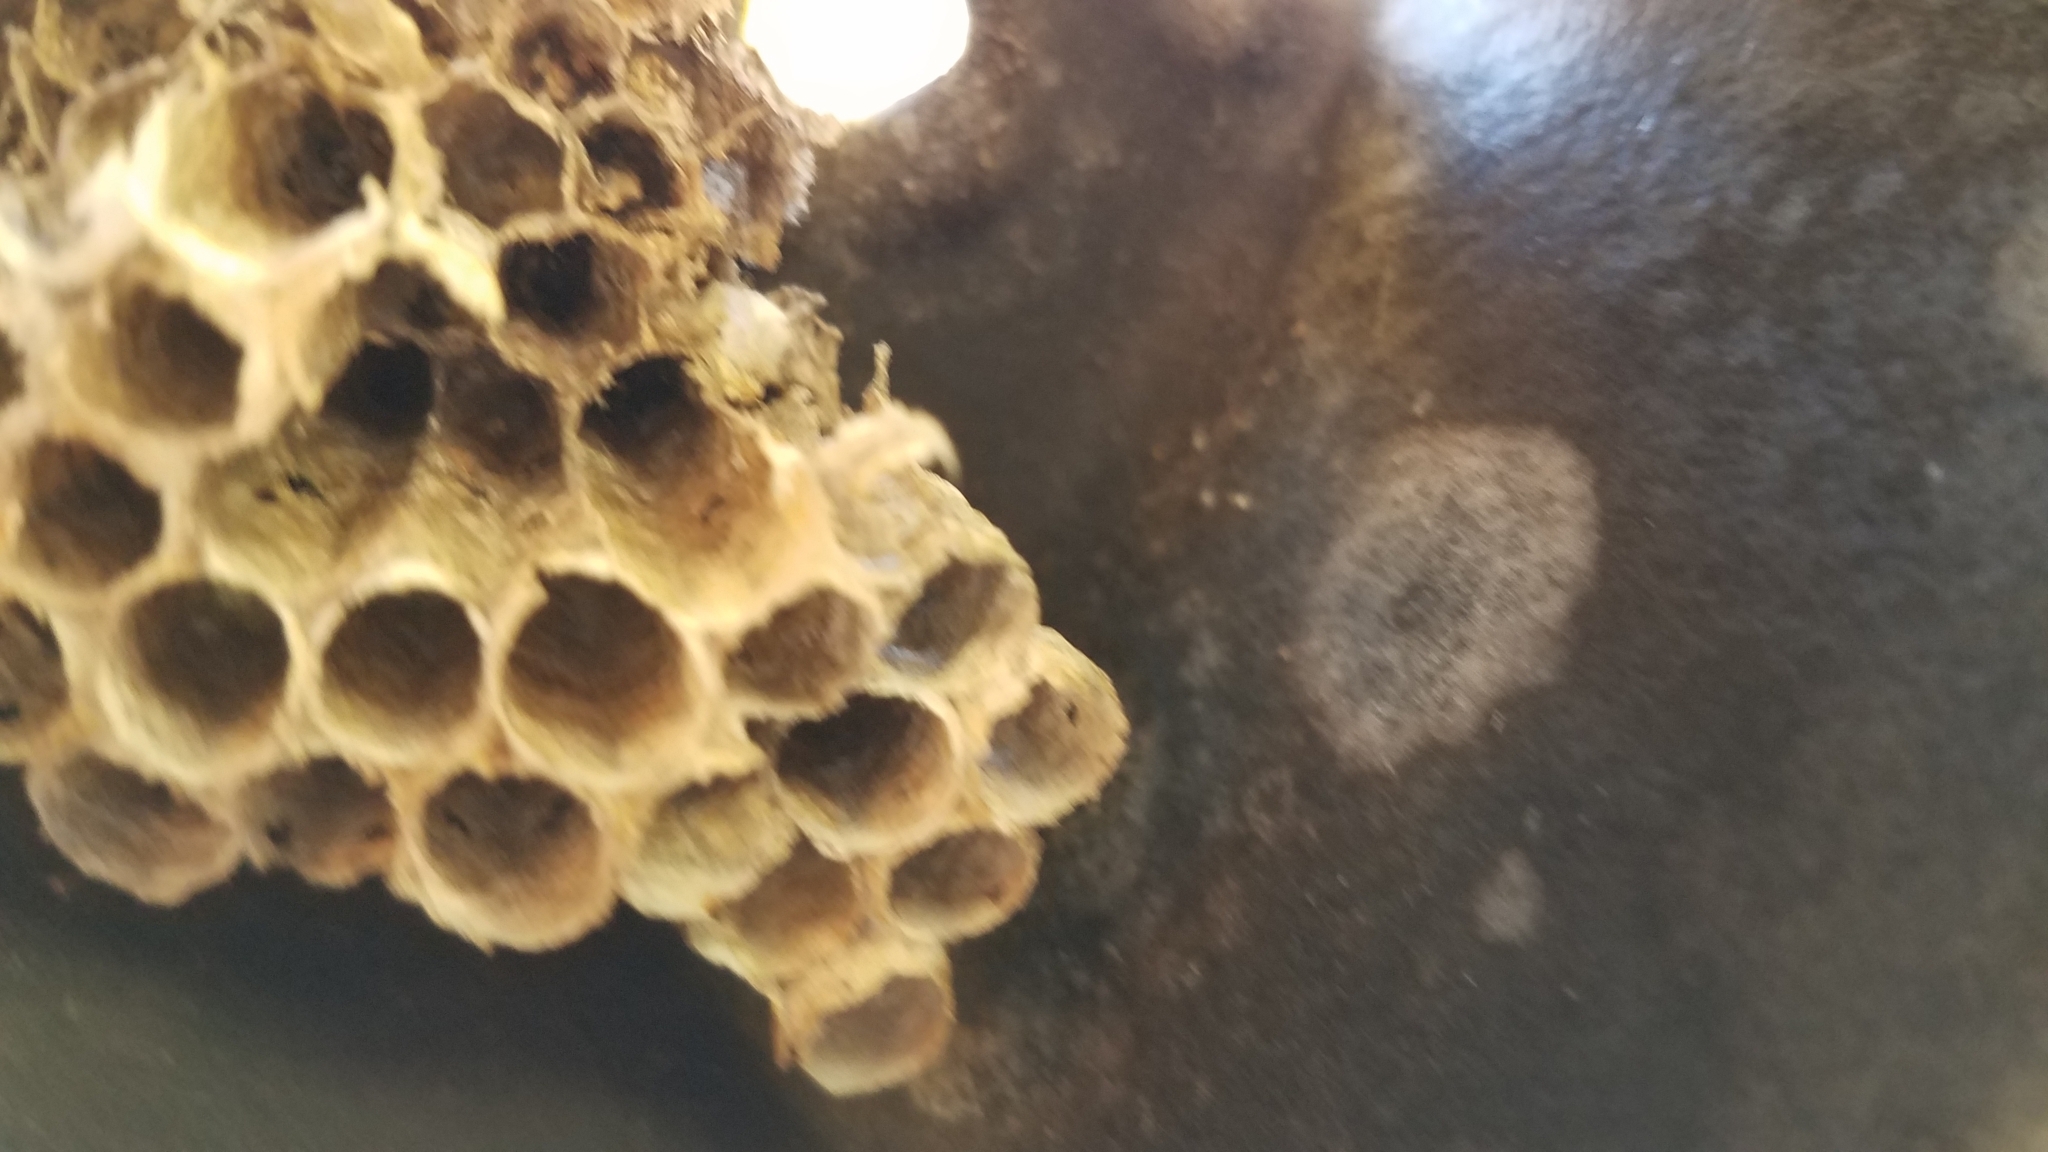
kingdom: Animalia
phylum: Arthropoda
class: Insecta
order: Hymenoptera
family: Eumenidae
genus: Polistes
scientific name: Polistes
